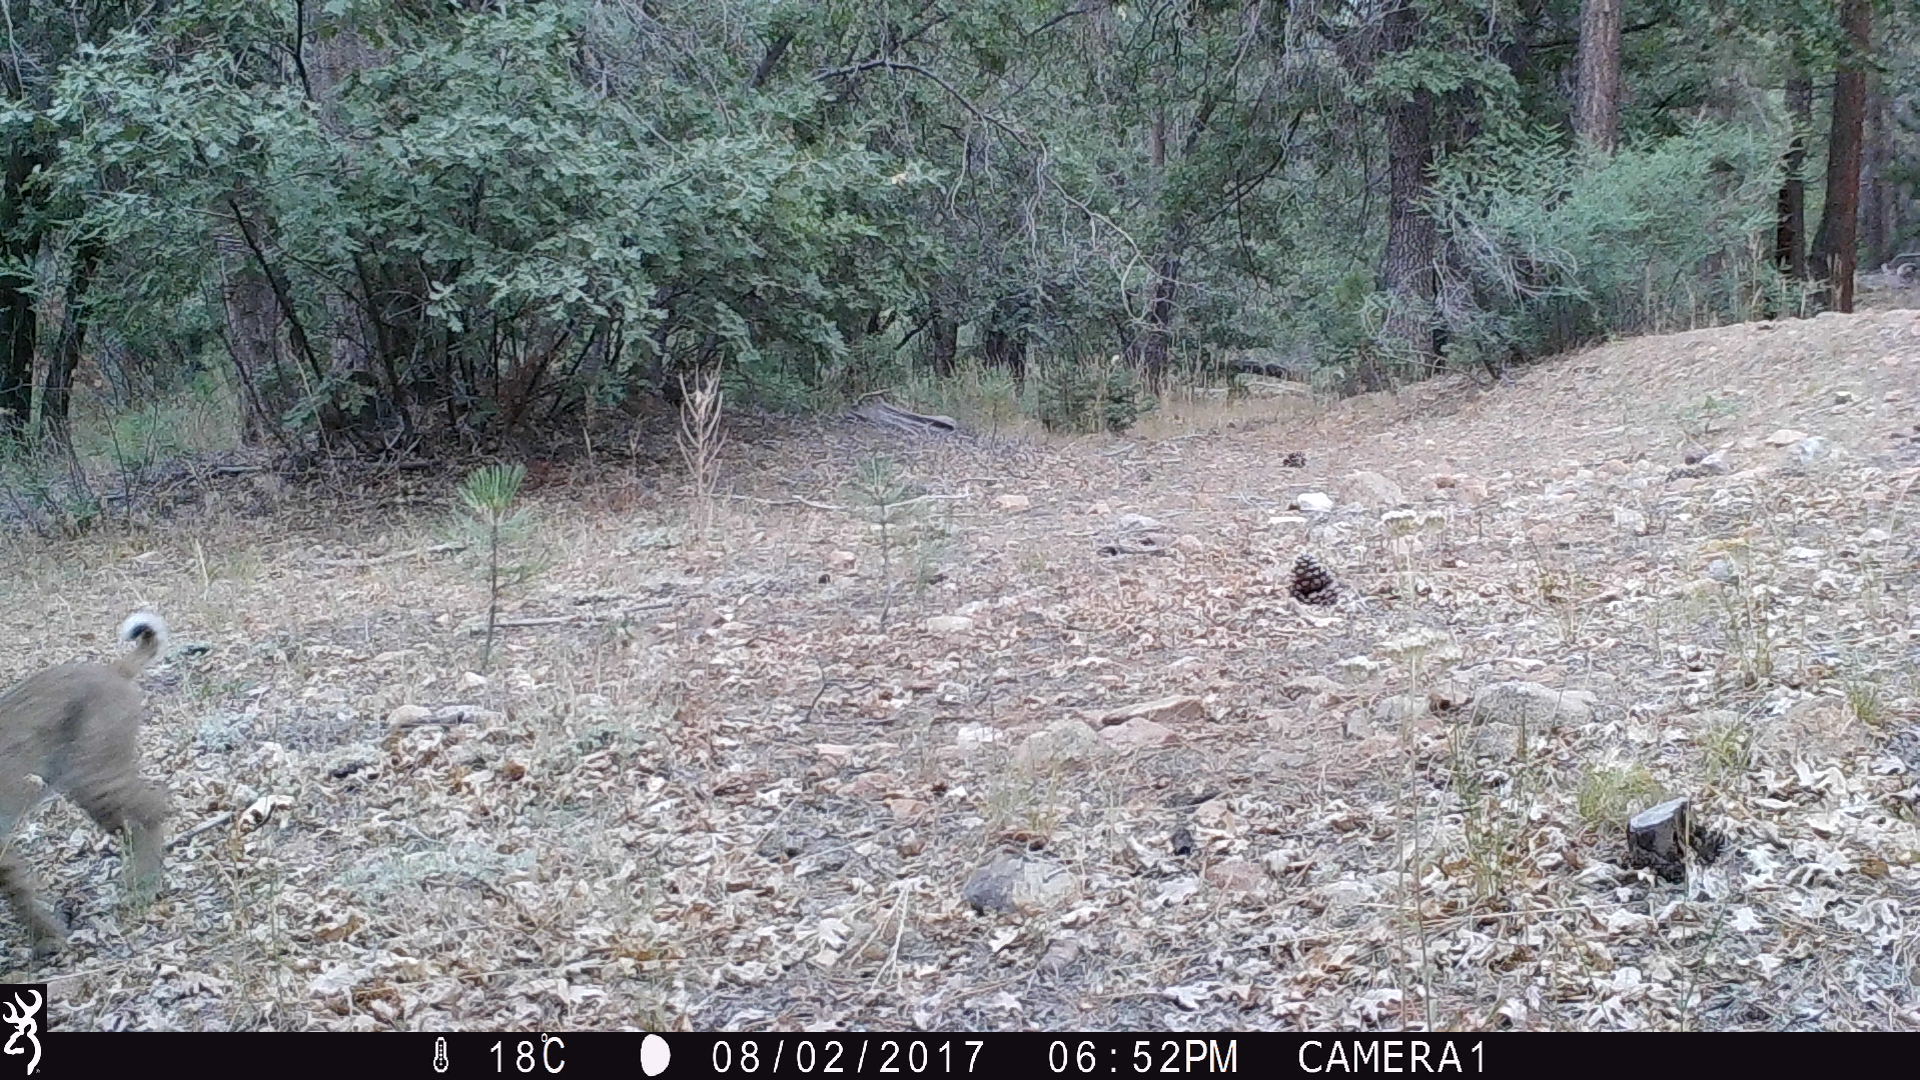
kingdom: Animalia
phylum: Chordata
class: Mammalia
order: Carnivora
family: Felidae
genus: Lynx
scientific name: Lynx rufus
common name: Bobcat
